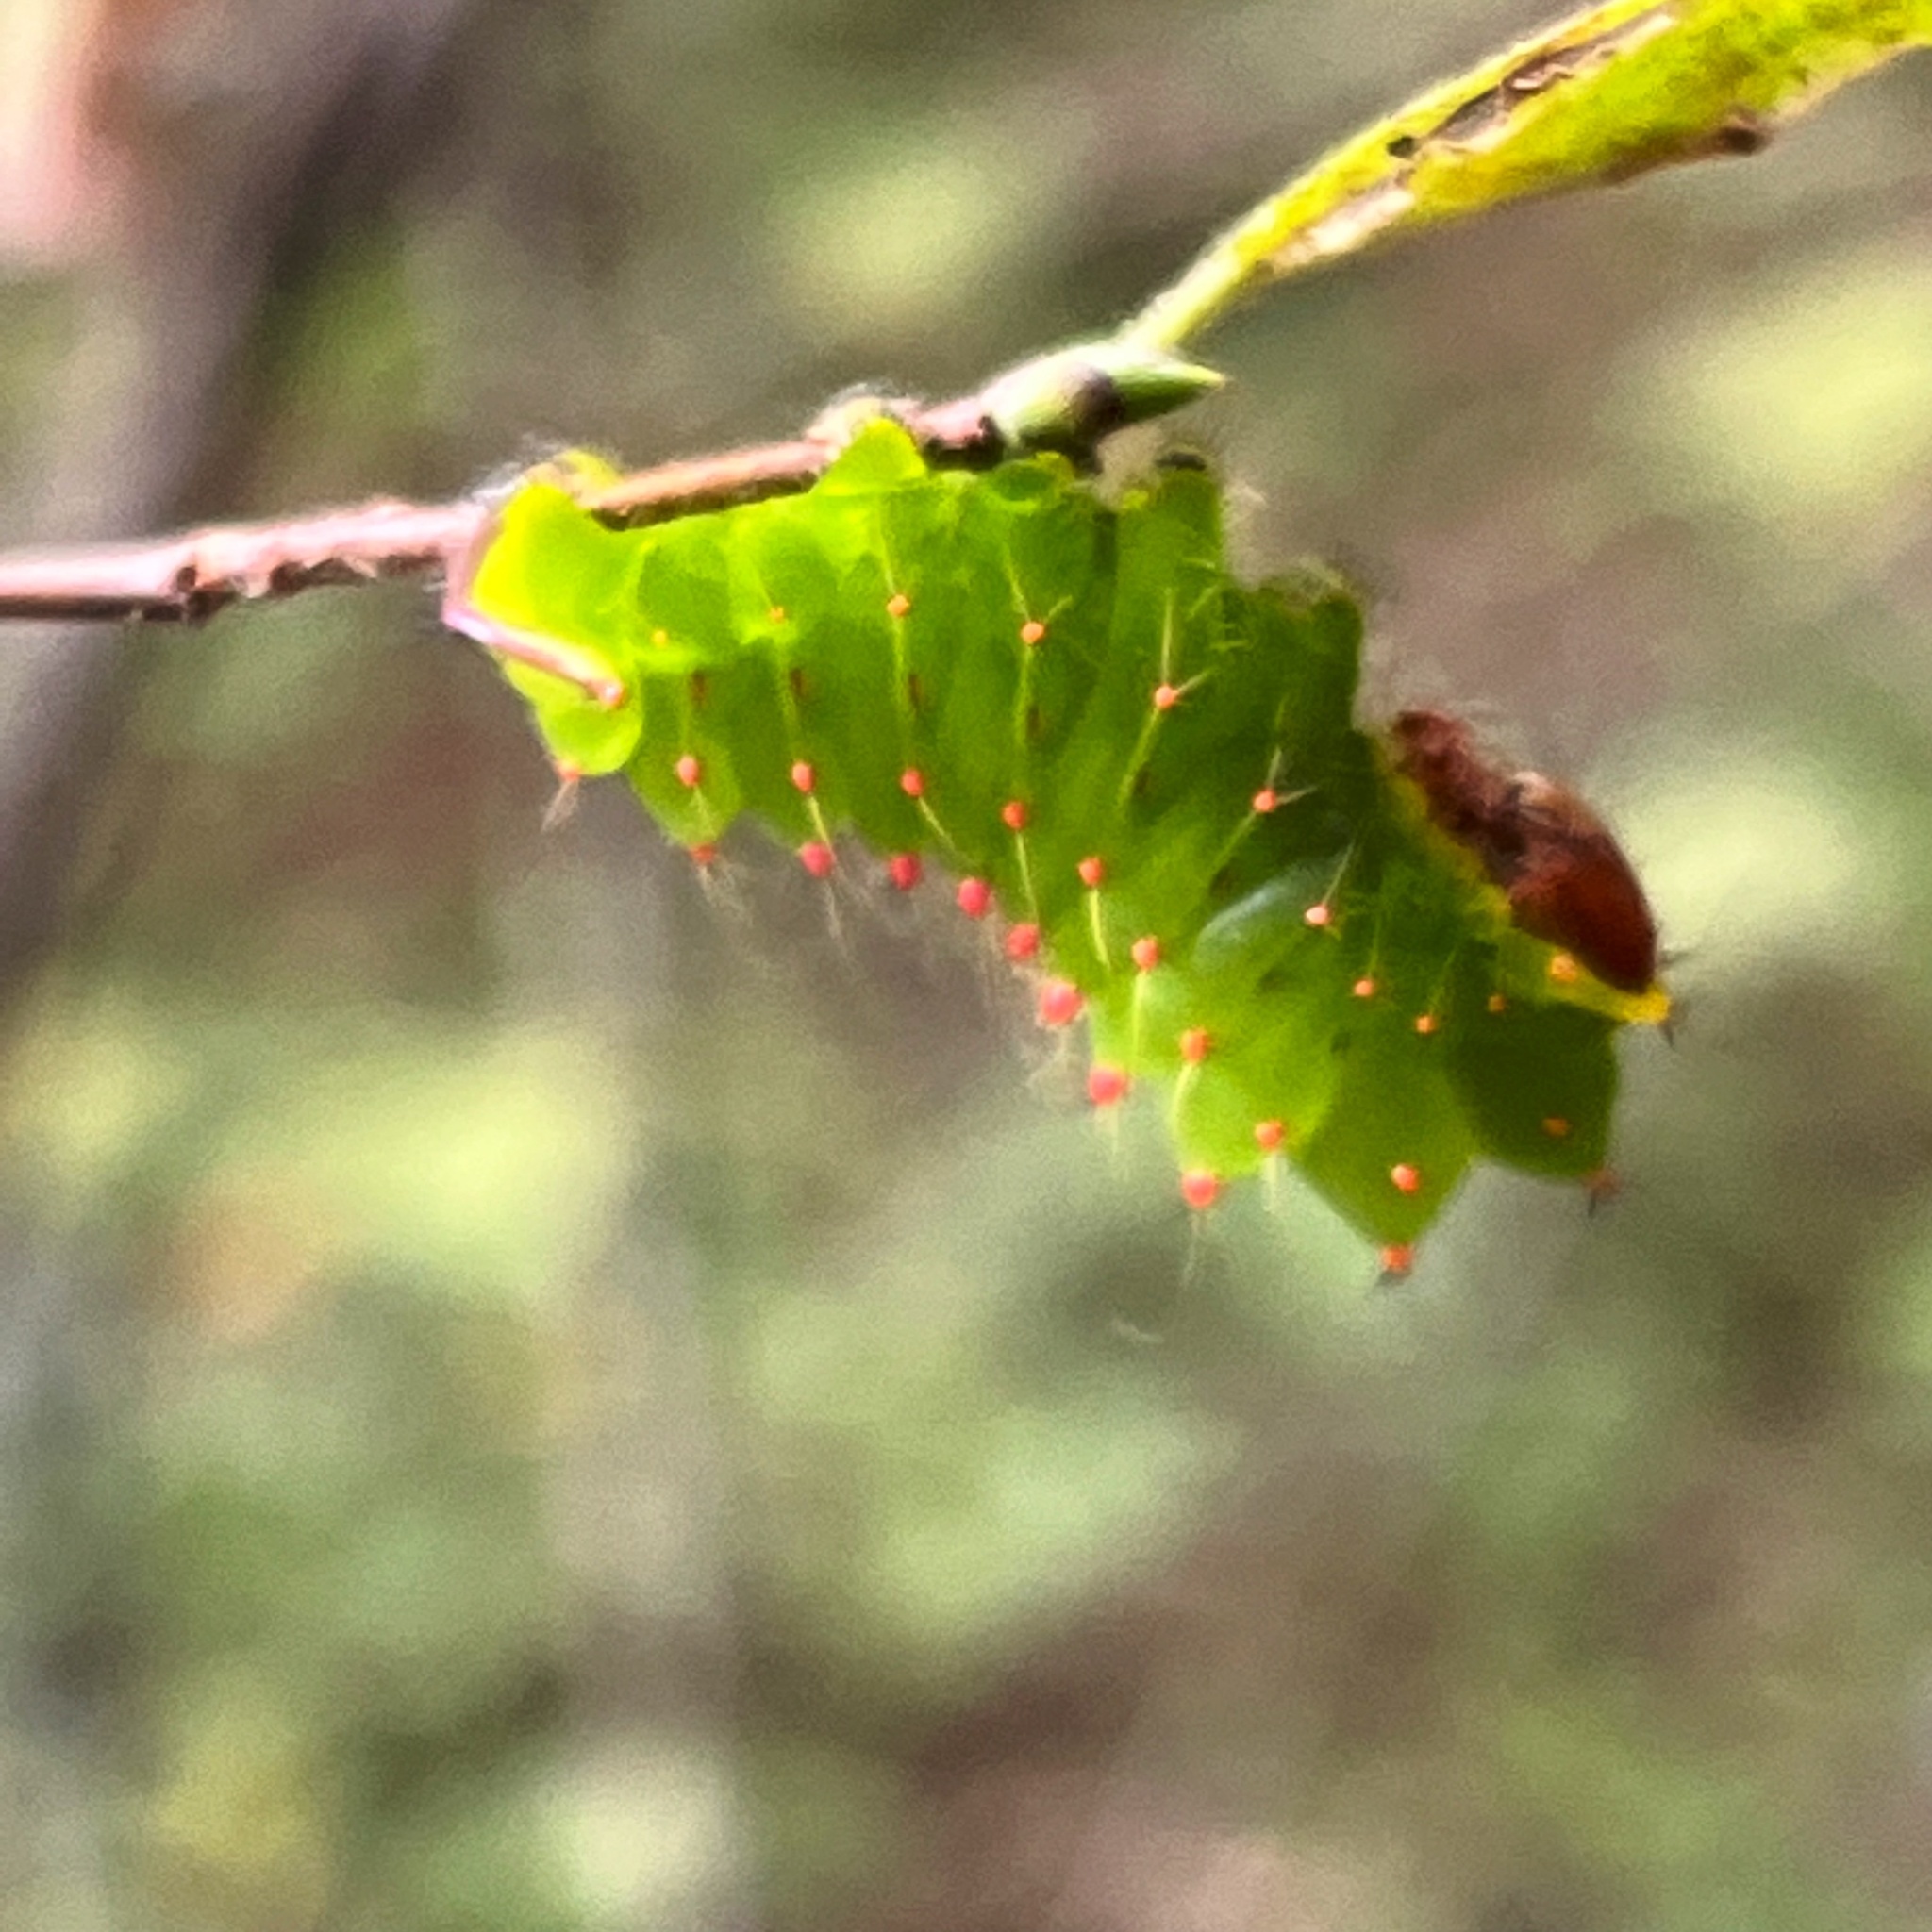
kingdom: Animalia
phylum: Arthropoda
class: Insecta
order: Lepidoptera
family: Saturniidae
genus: Antheraea
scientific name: Antheraea polyphemus
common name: Polyphemus moth
